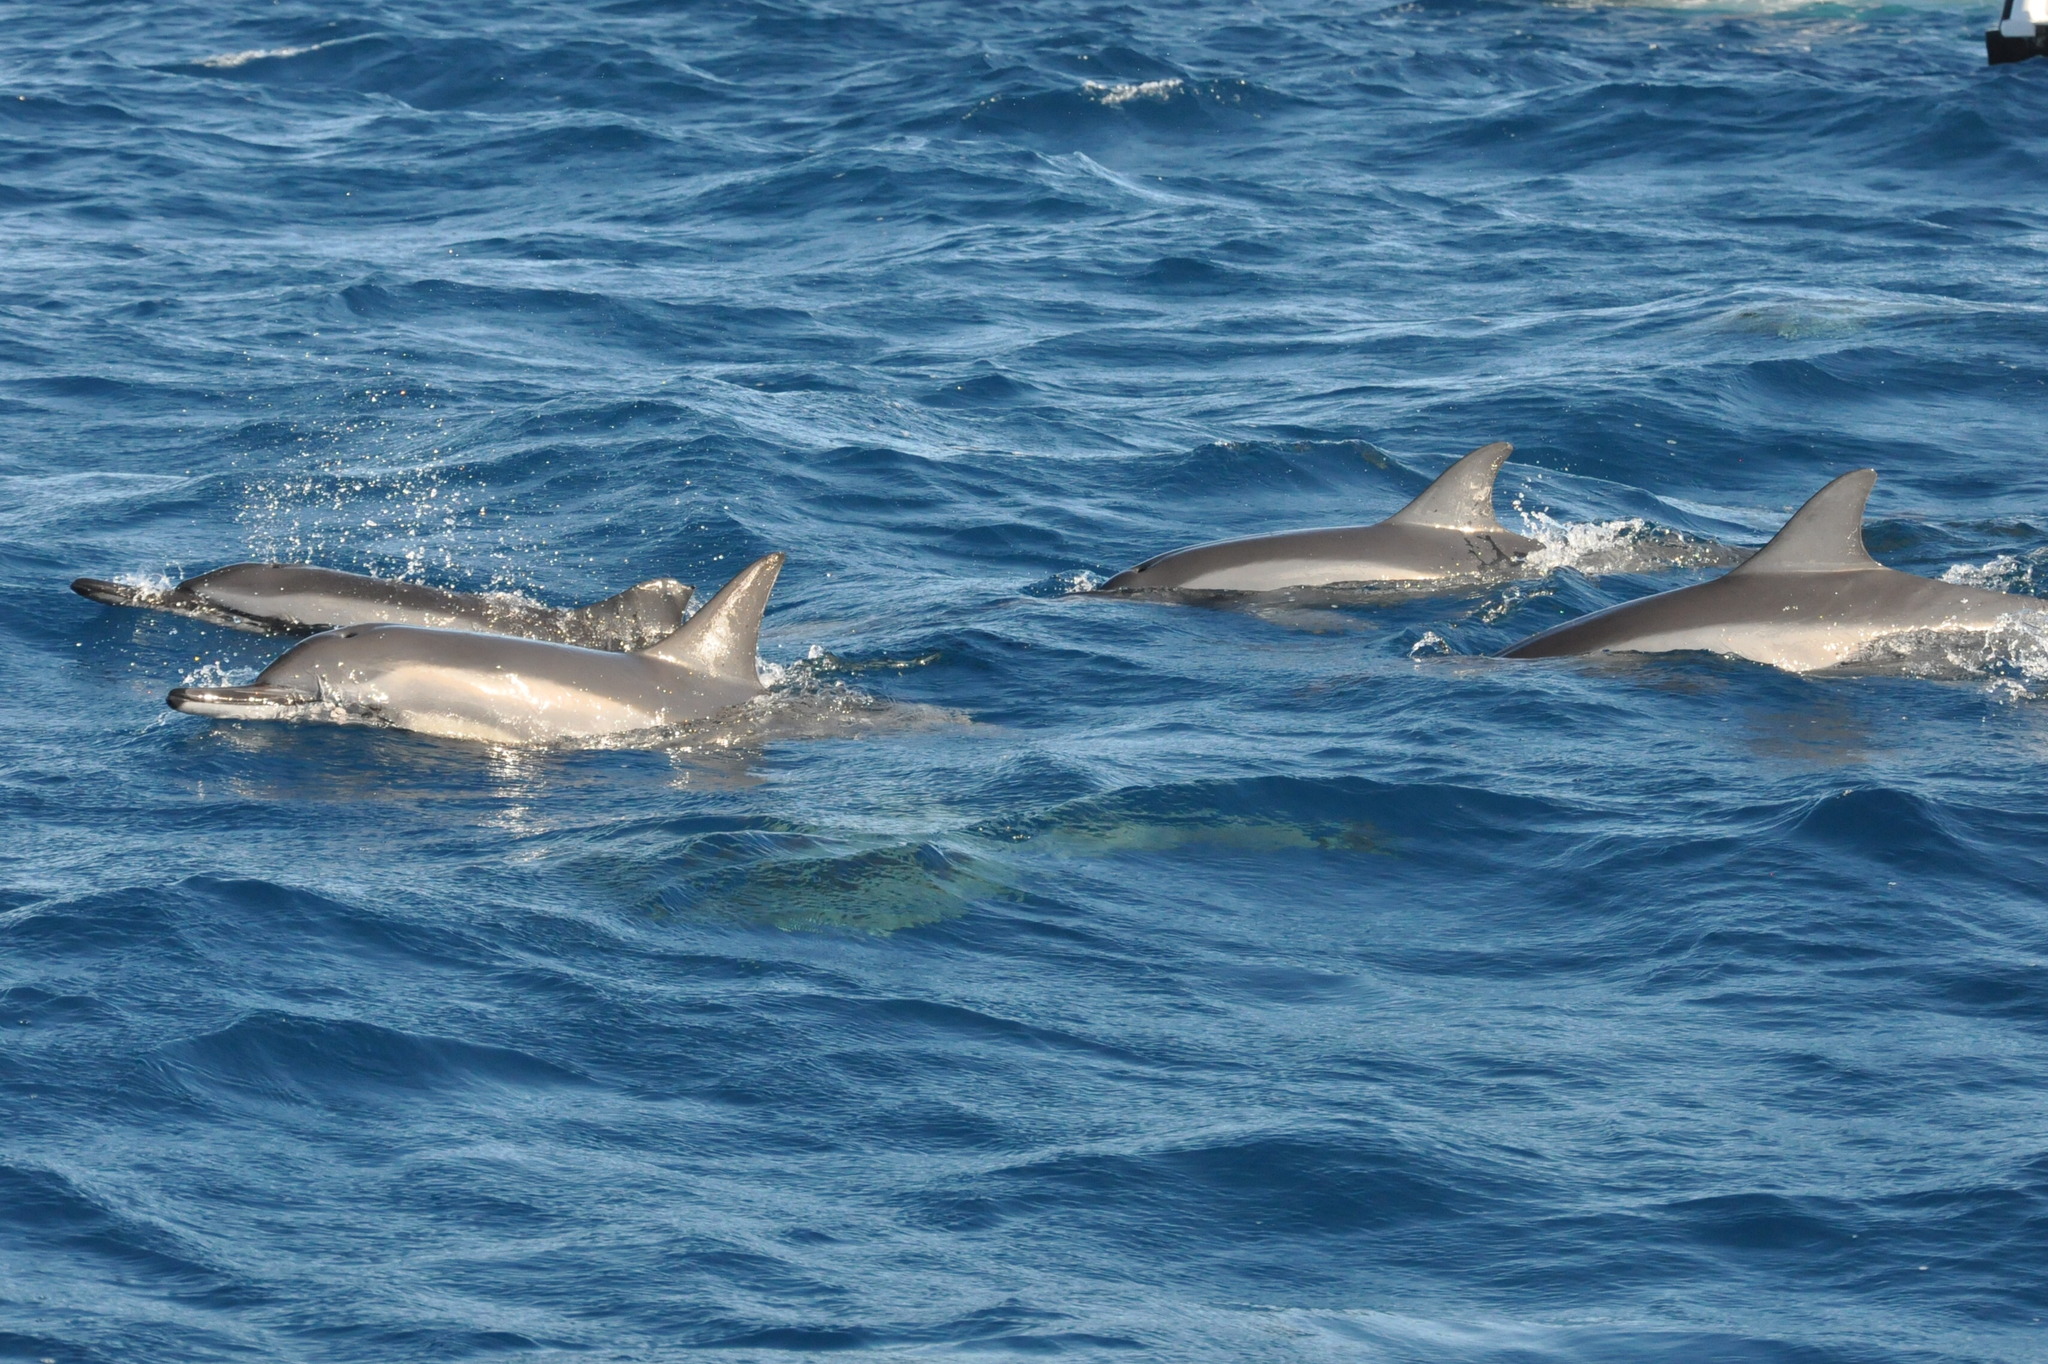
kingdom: Animalia
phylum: Chordata
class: Mammalia
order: Cetacea
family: Delphinidae
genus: Stenella
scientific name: Stenella longirostris
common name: Spinner dolphin
